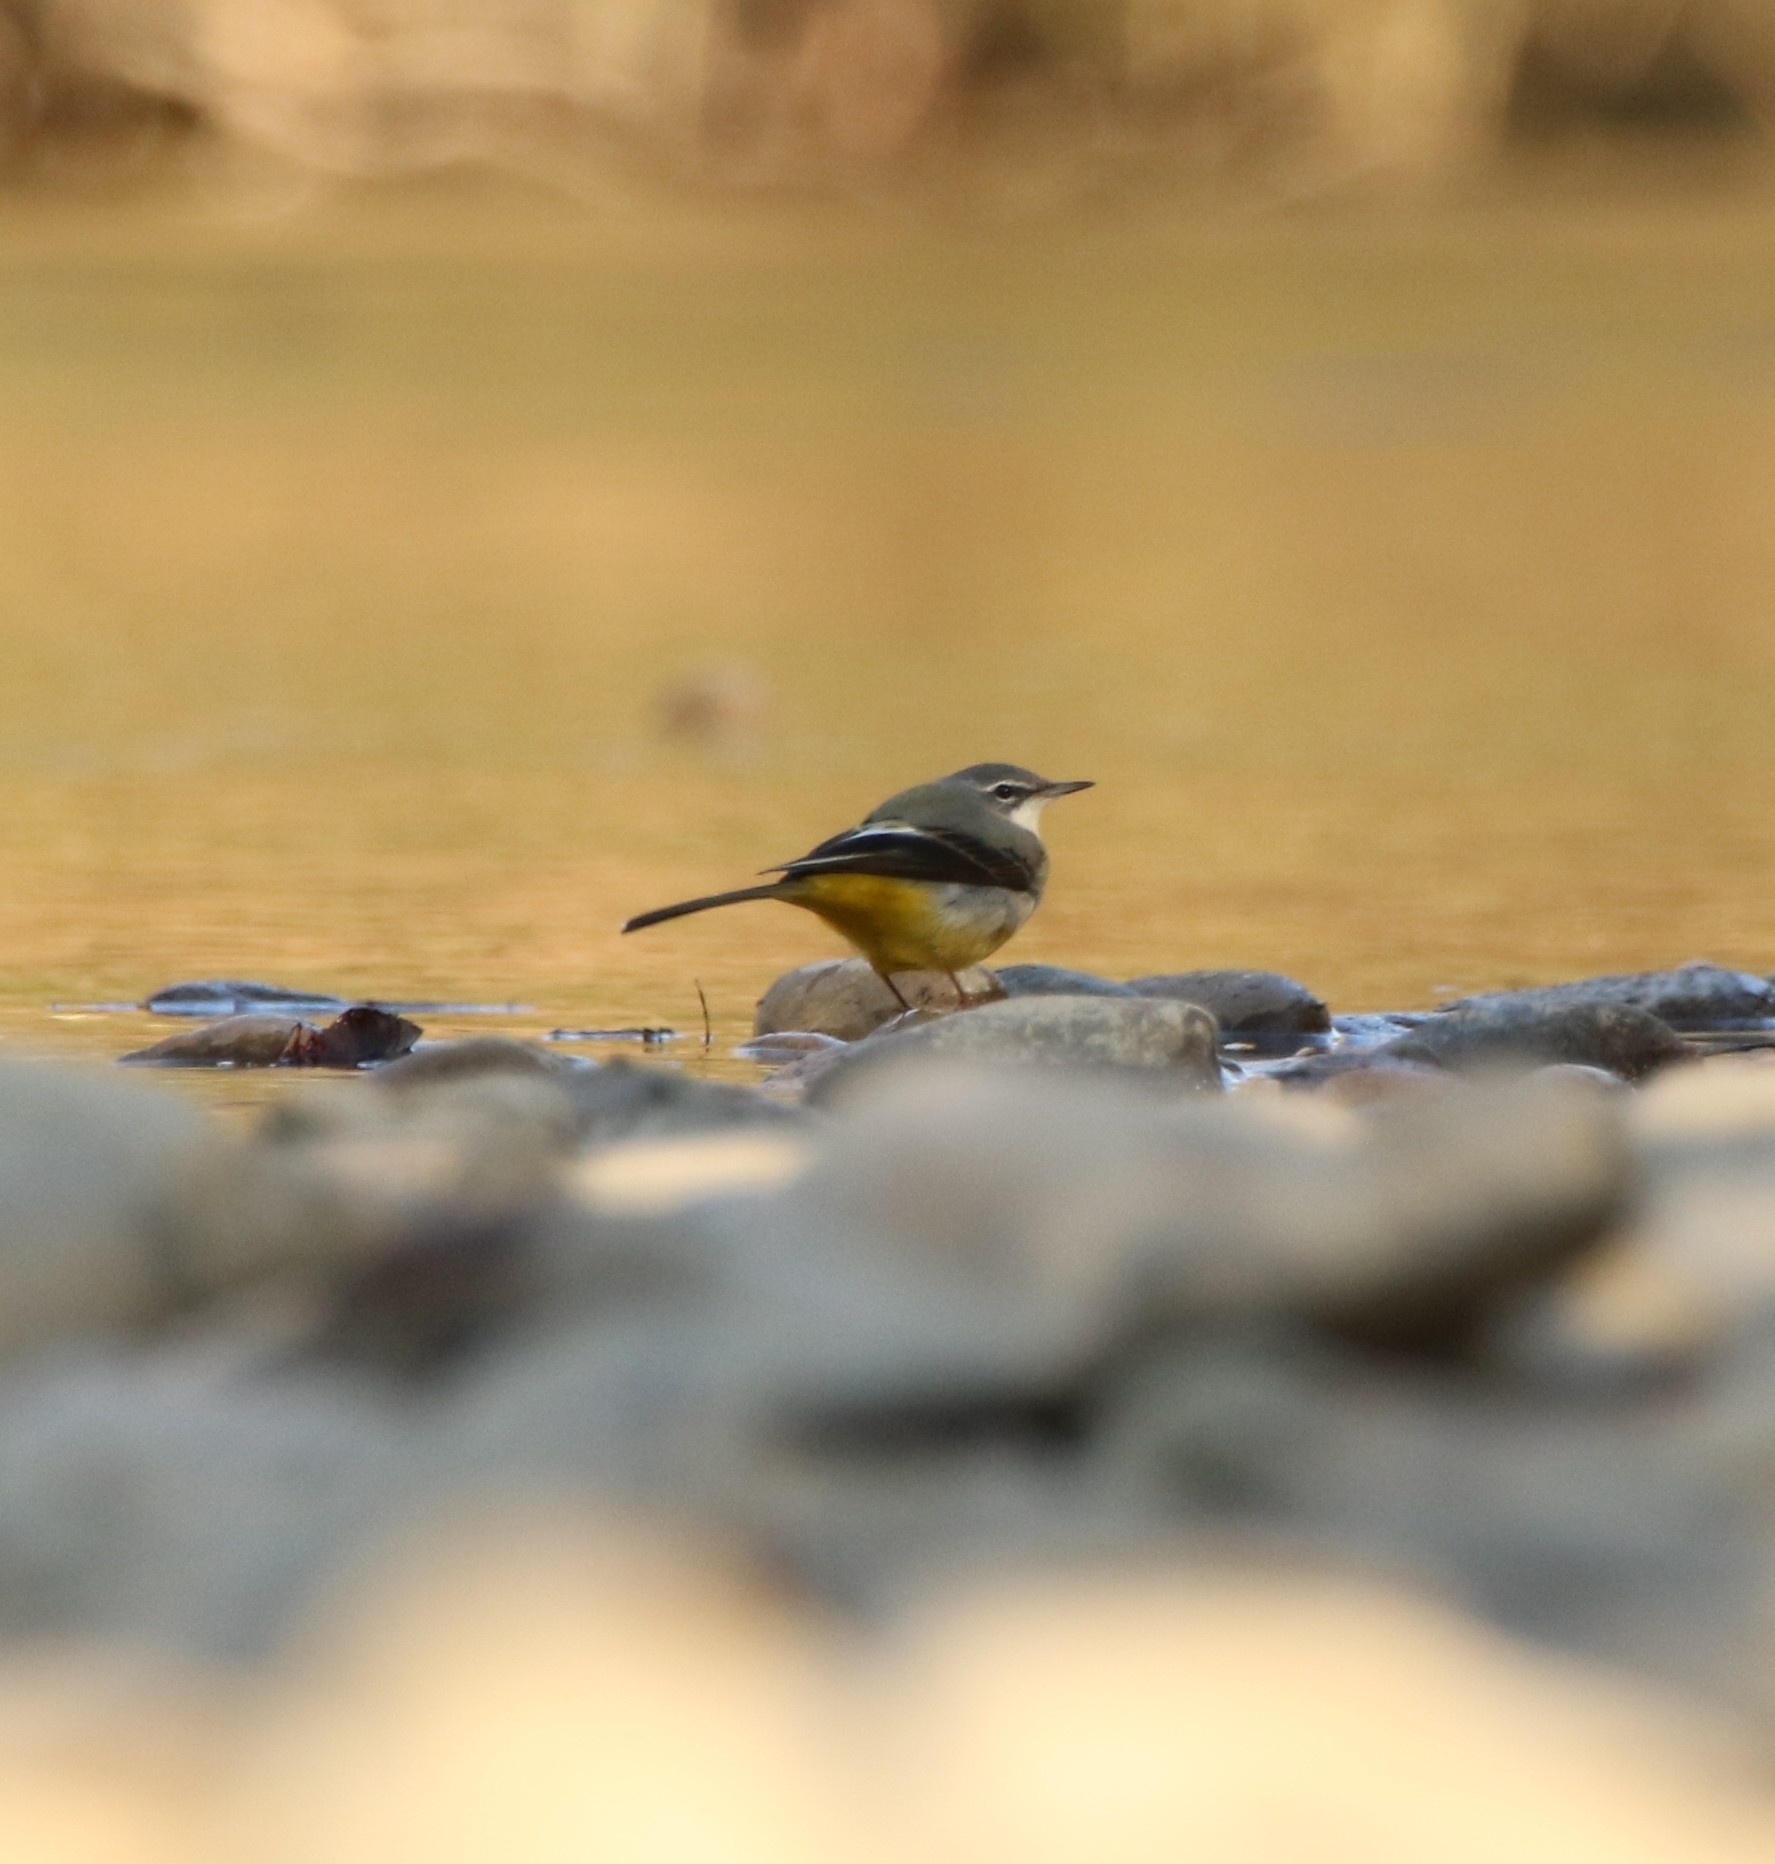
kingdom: Animalia
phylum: Chordata
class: Aves
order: Passeriformes
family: Motacillidae
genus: Motacilla
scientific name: Motacilla cinerea
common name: Grey wagtail
